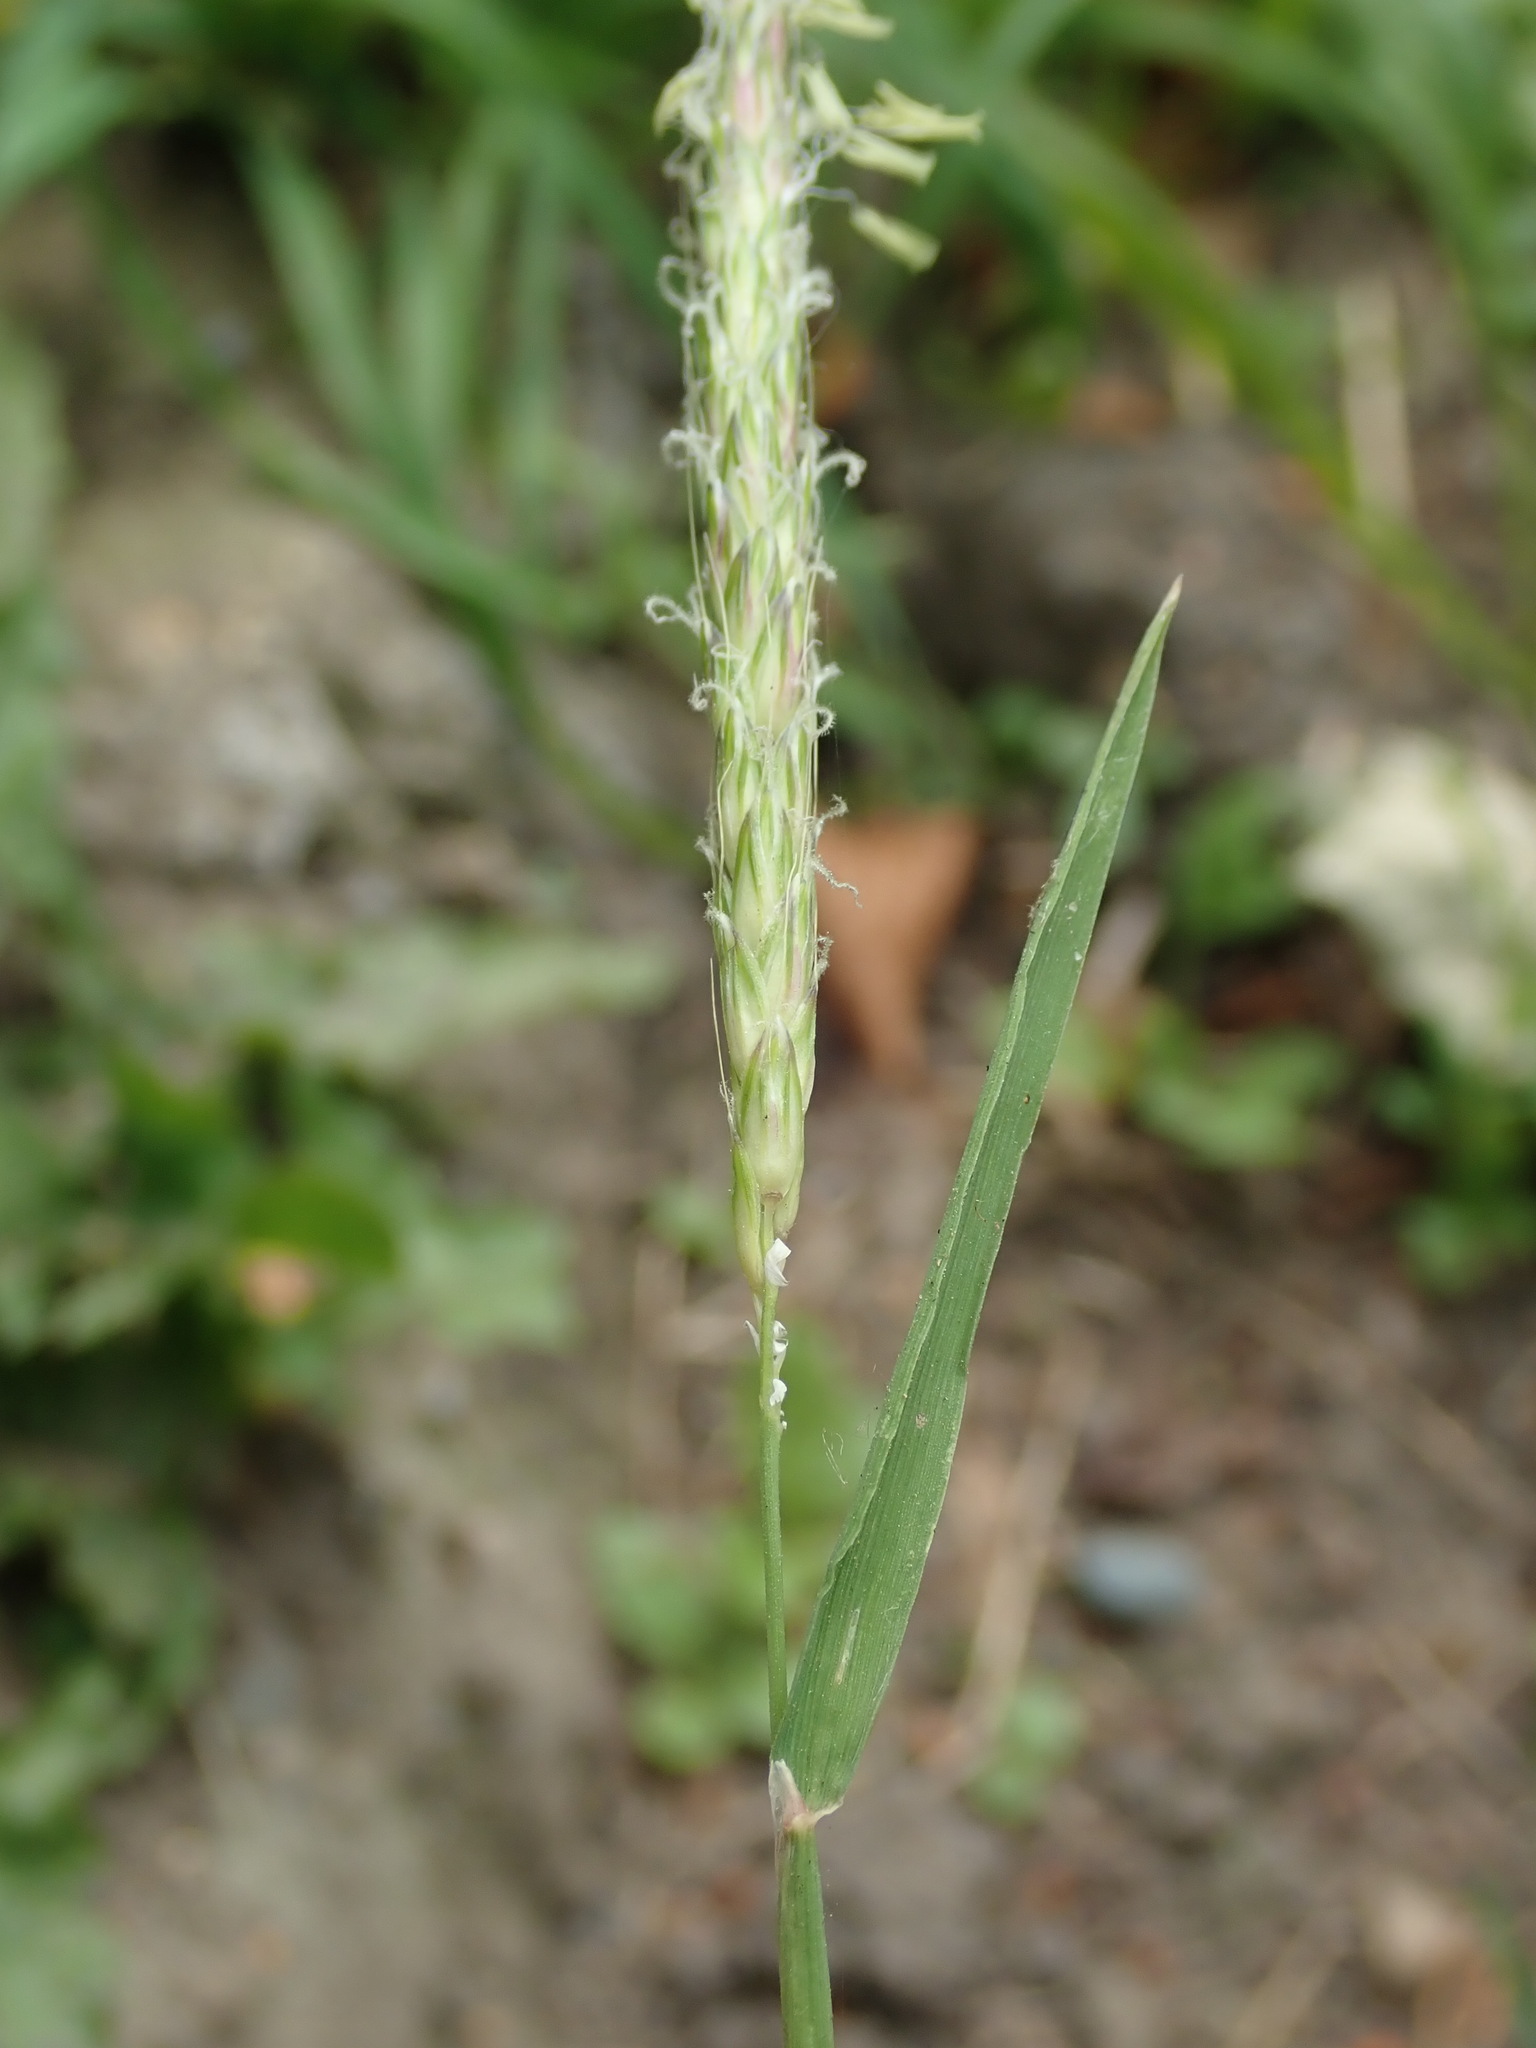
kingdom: Plantae
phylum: Tracheophyta
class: Liliopsida
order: Poales
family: Poaceae
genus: Alopecurus
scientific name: Alopecurus myosuroides
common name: Black-grass
